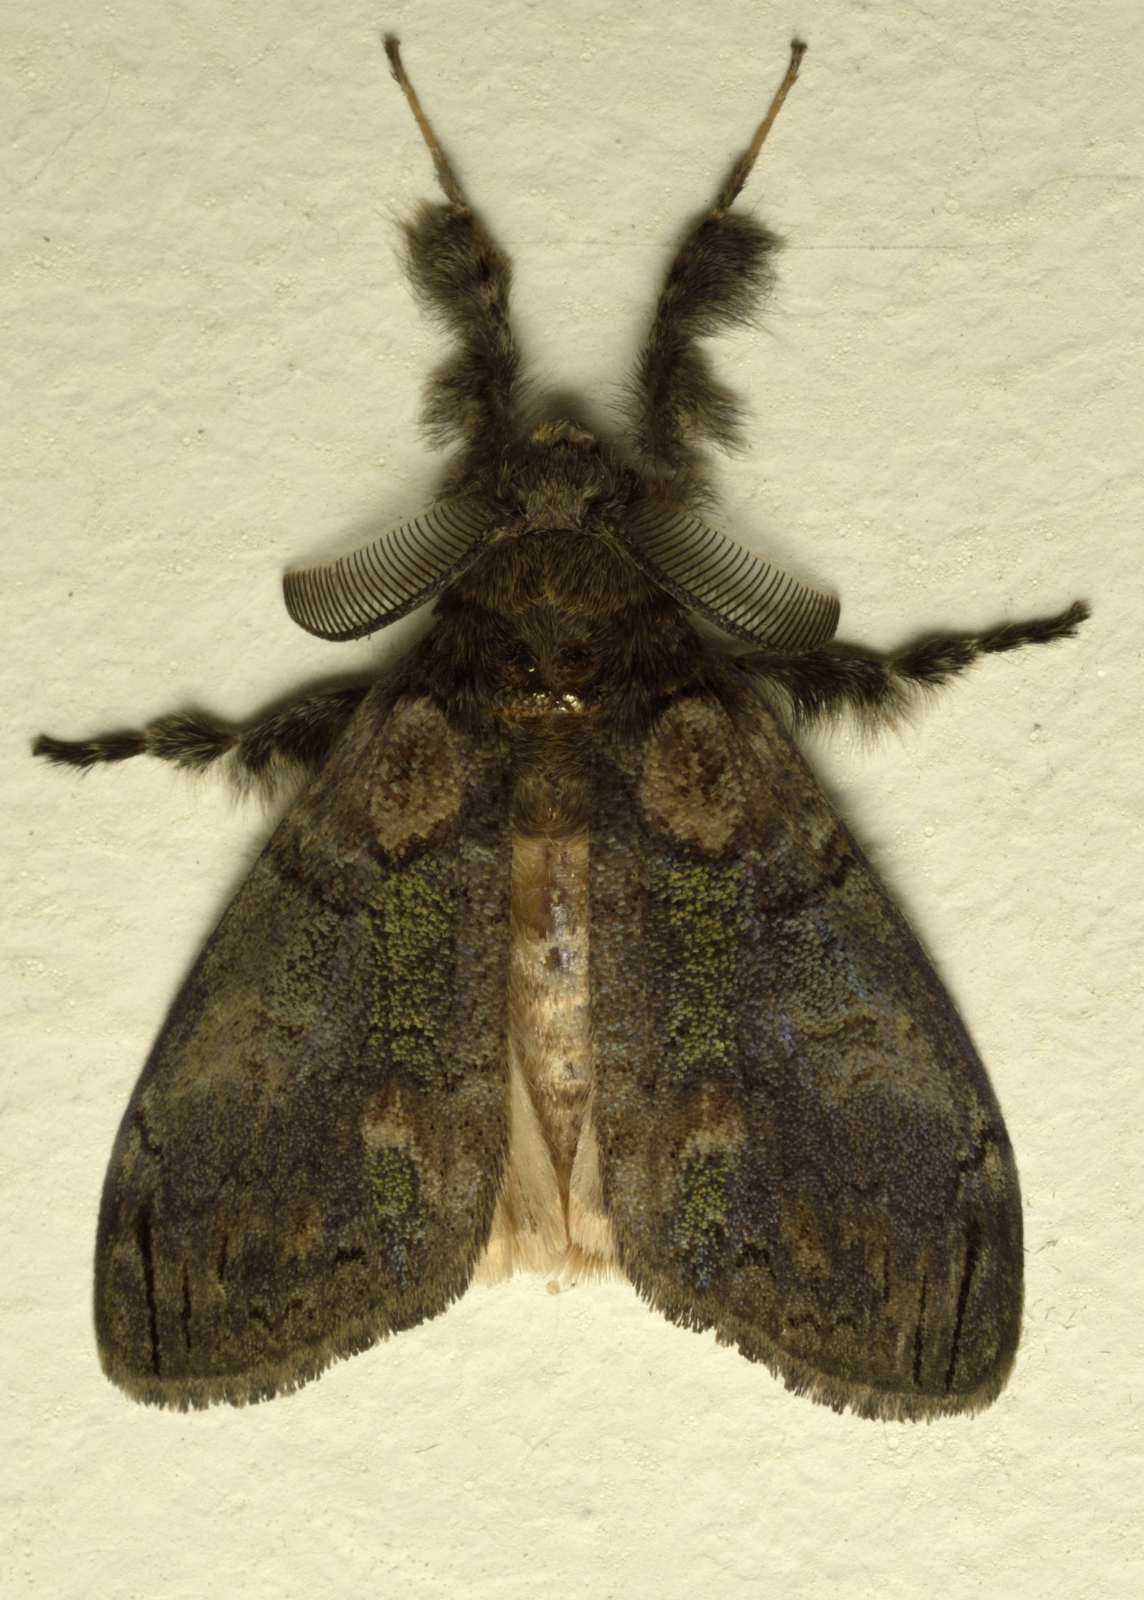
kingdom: Animalia
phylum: Arthropoda
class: Insecta
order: Lepidoptera
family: Erebidae
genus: Olene
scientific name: Olene dudgeoni
